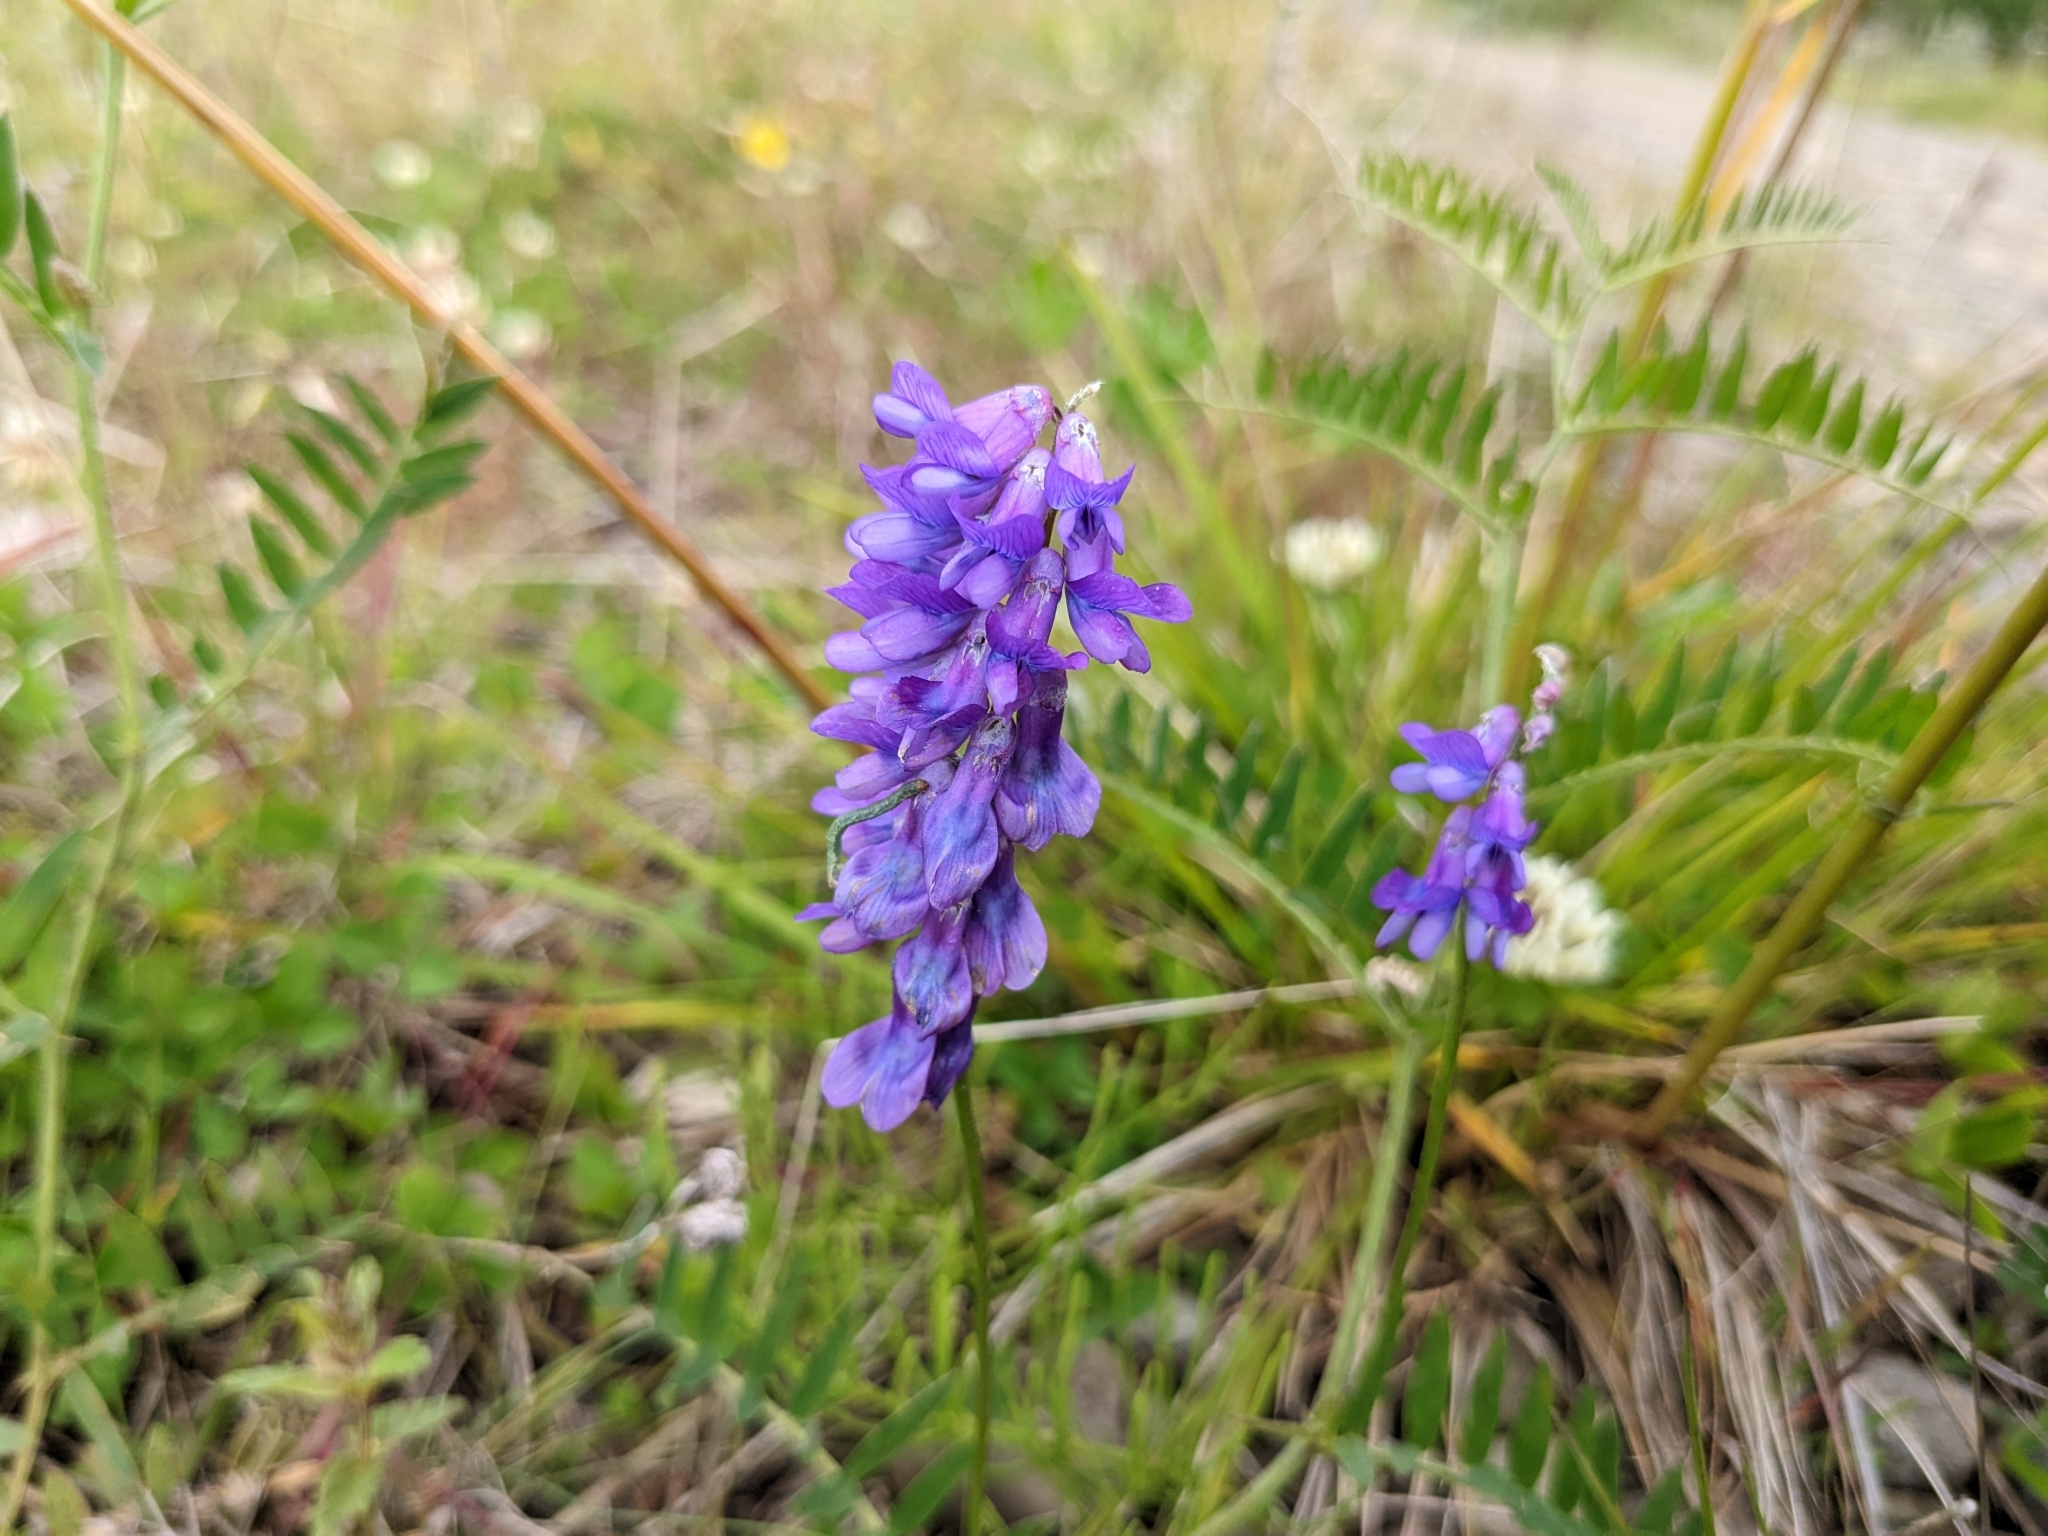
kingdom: Plantae
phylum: Tracheophyta
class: Magnoliopsida
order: Fabales
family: Fabaceae
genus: Vicia
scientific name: Vicia cracca
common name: Bird vetch
